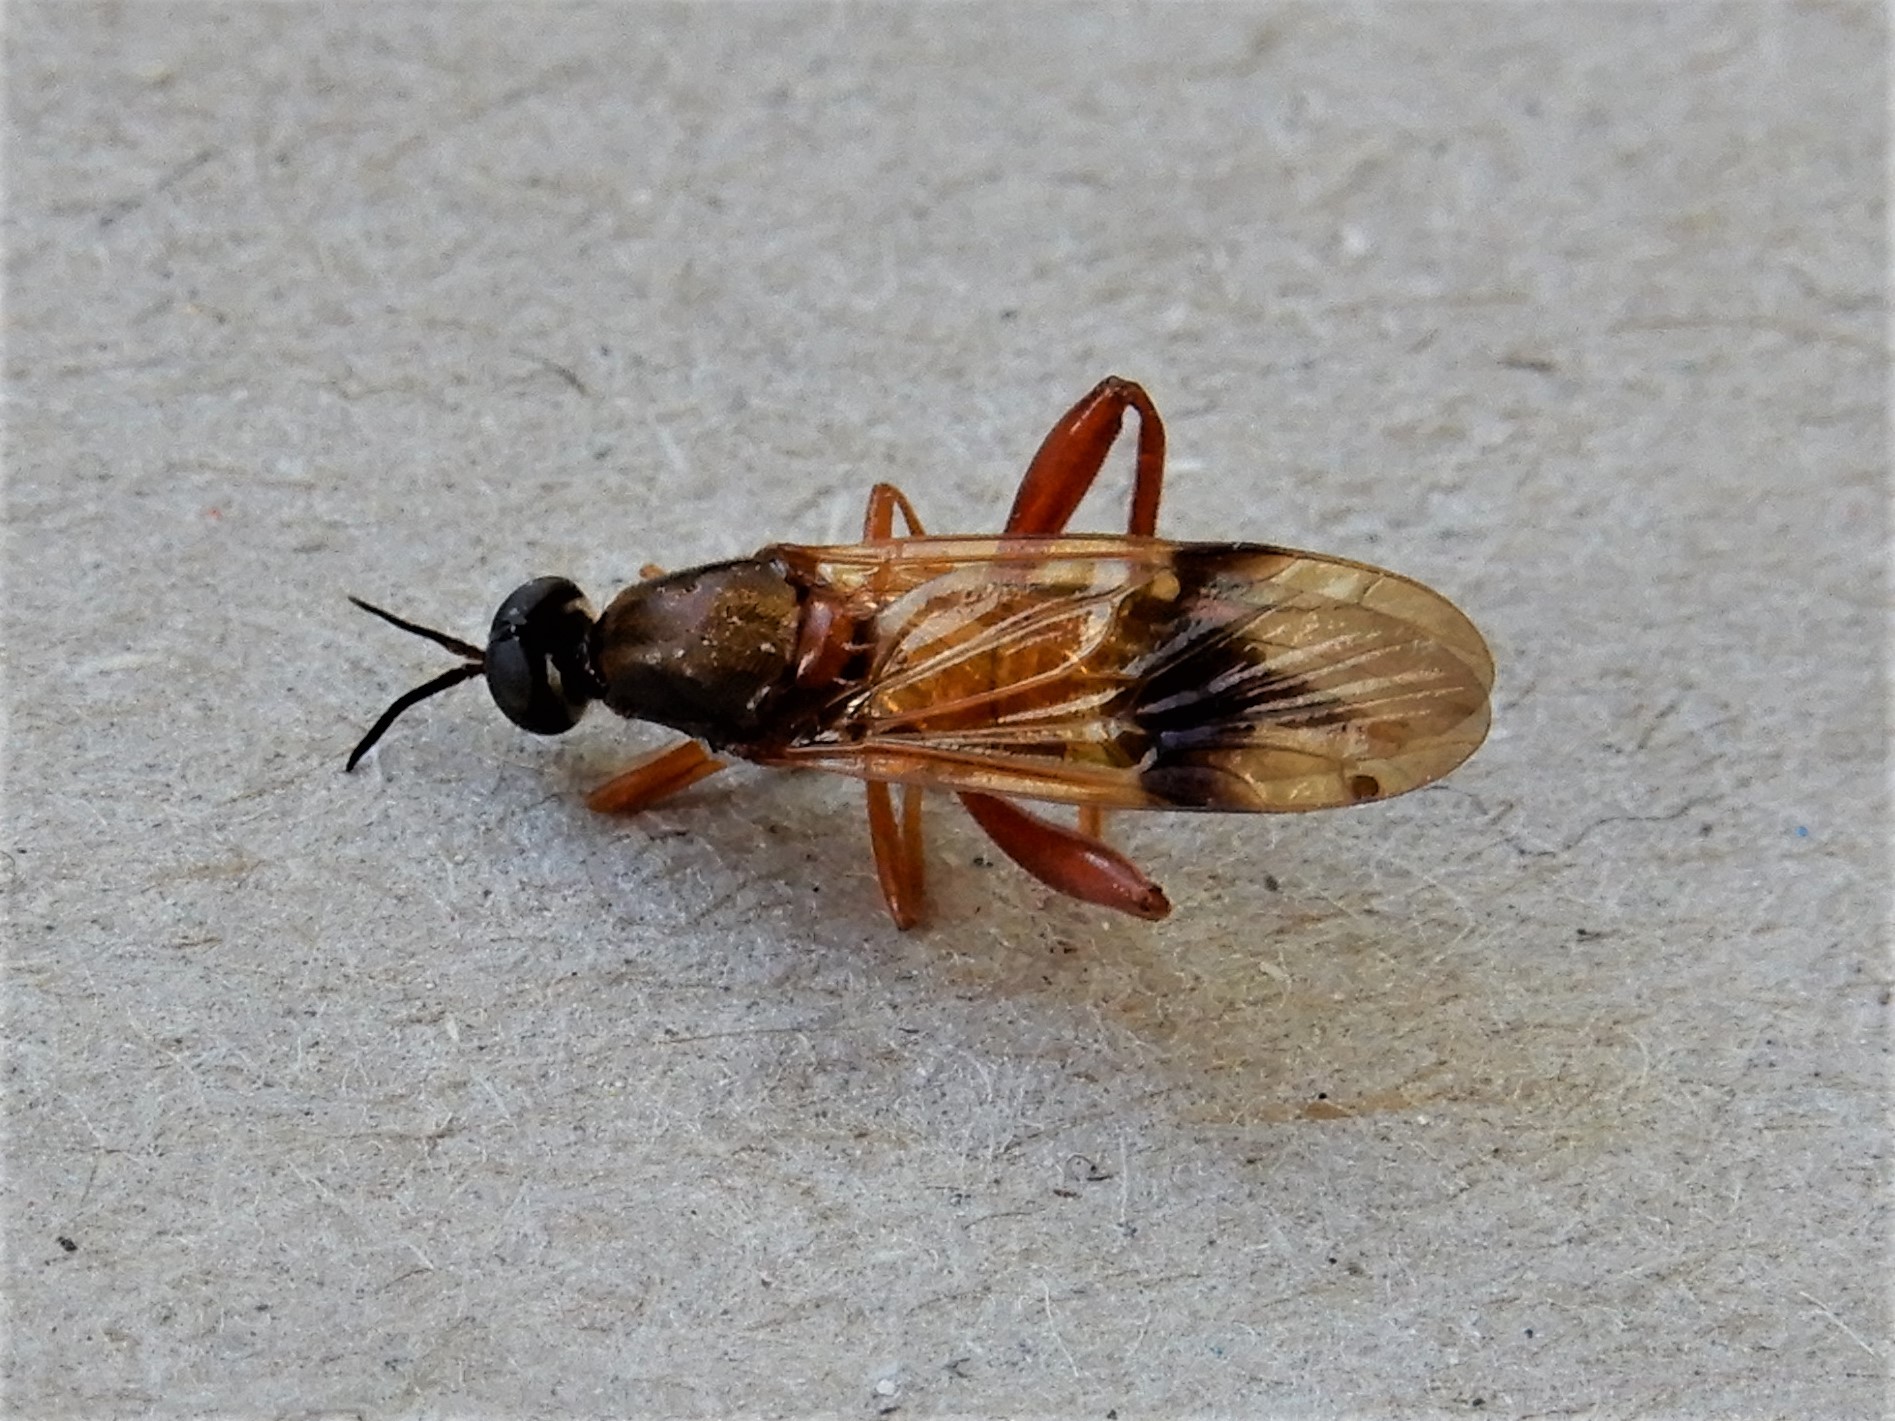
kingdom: Animalia
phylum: Arthropoda
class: Insecta
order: Diptera
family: Stratiomyidae
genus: Benhamyia
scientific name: Benhamyia apicalis
